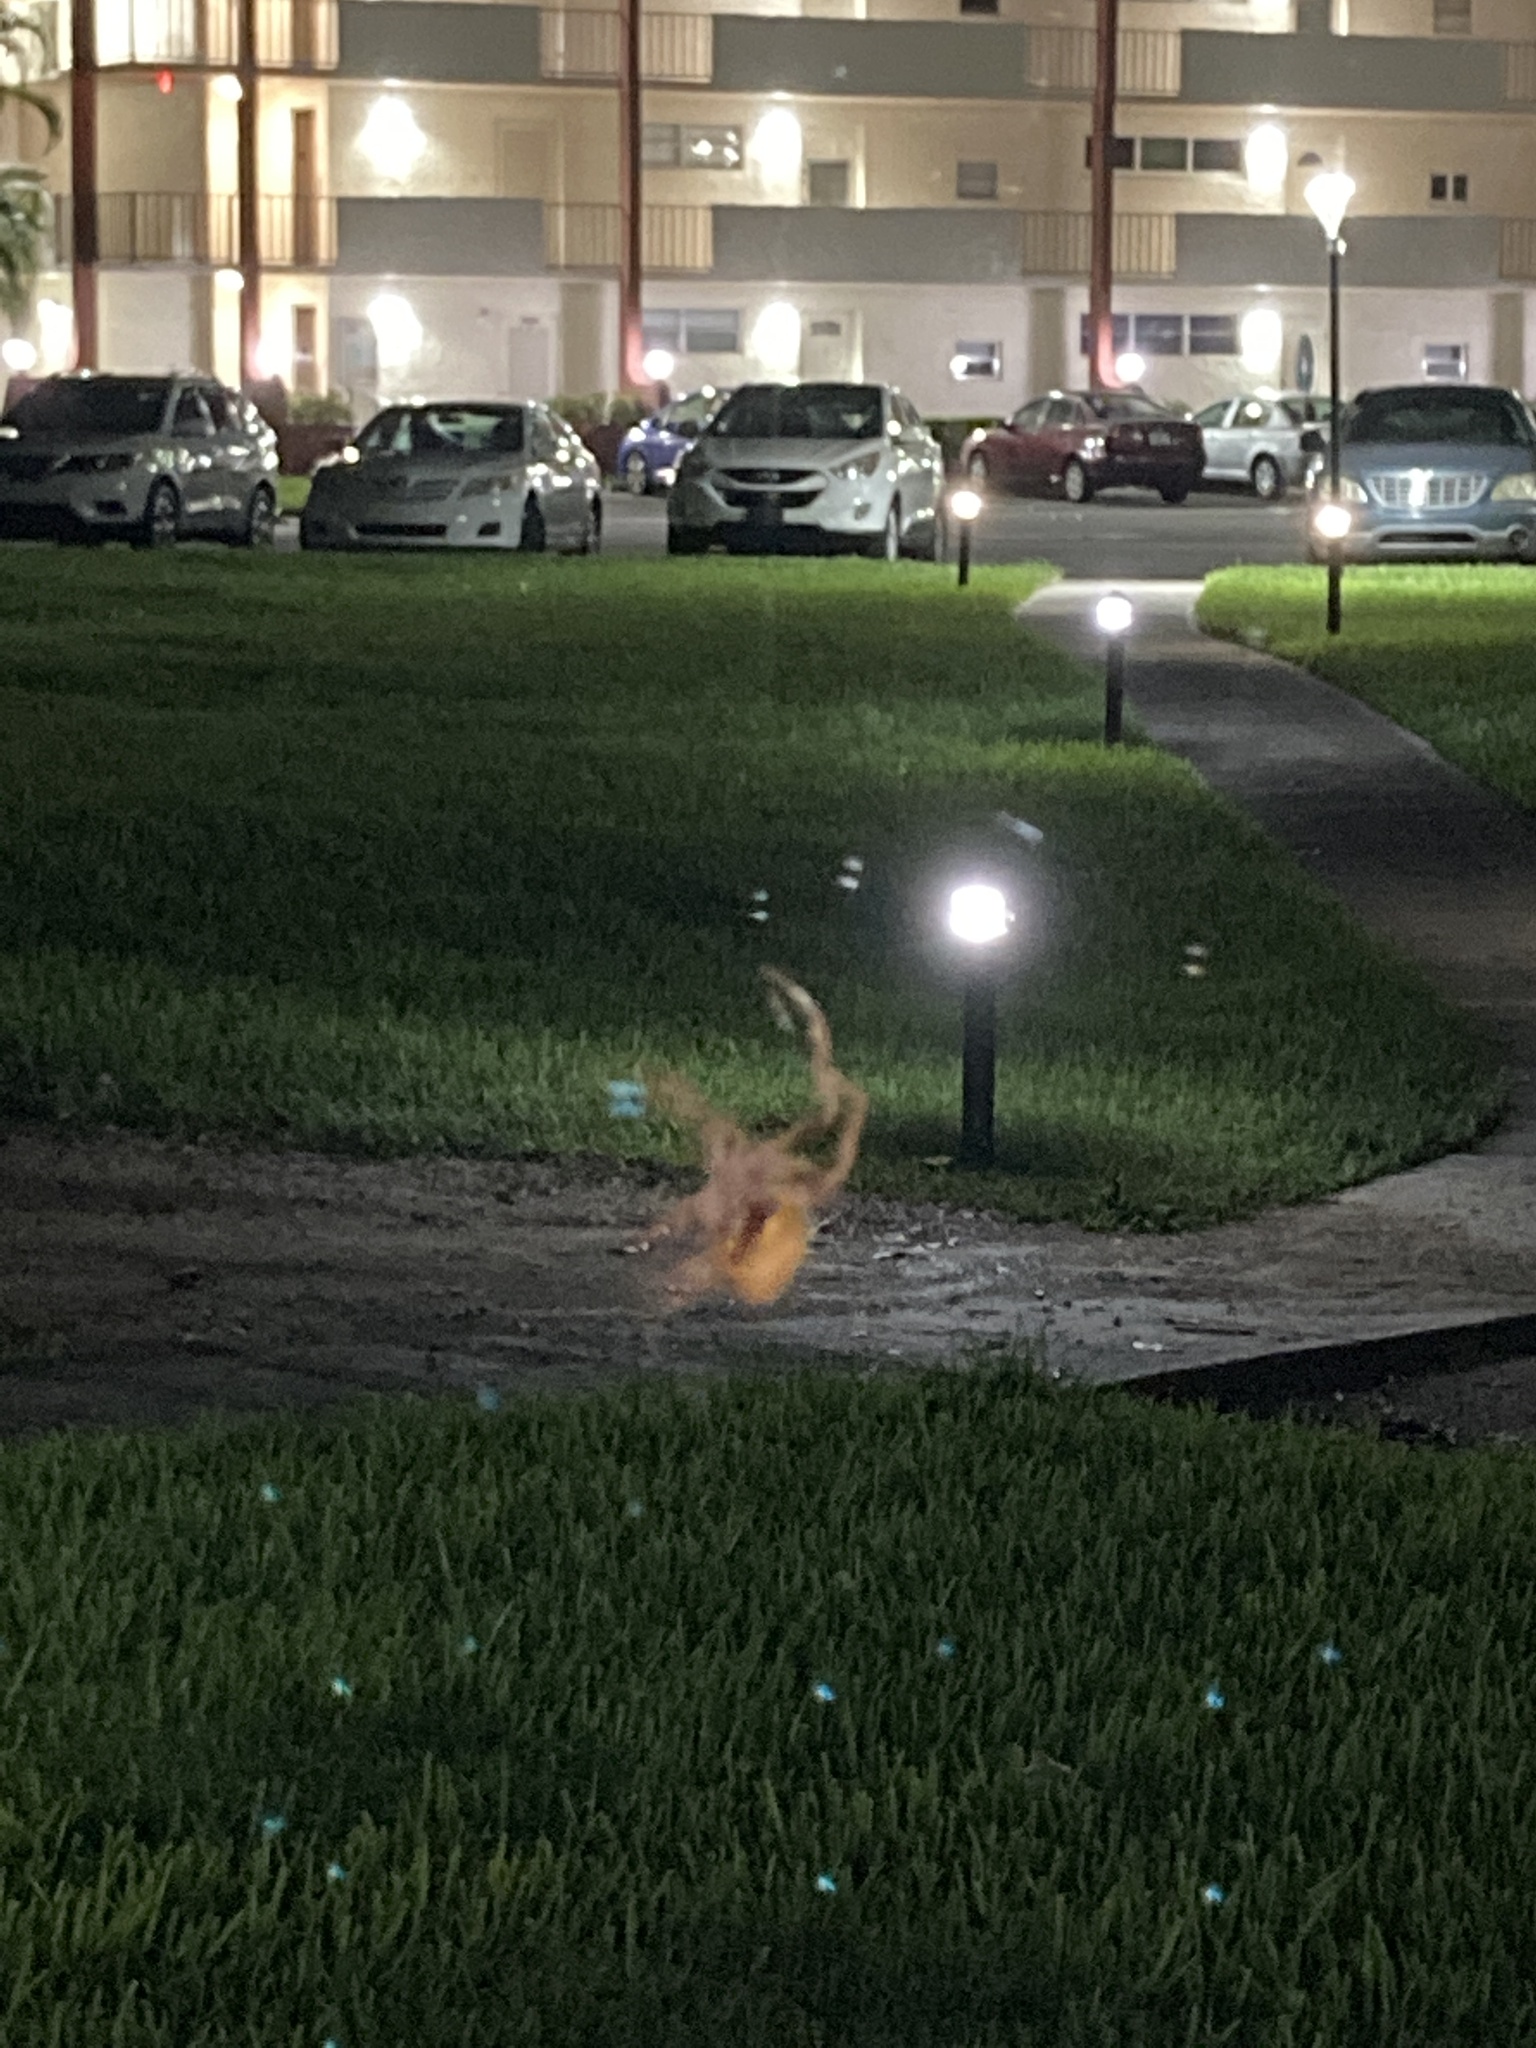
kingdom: Animalia
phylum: Arthropoda
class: Arachnida
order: Araneae
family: Araneidae
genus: Eriophora
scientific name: Eriophora ravilla
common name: Orb weavers
